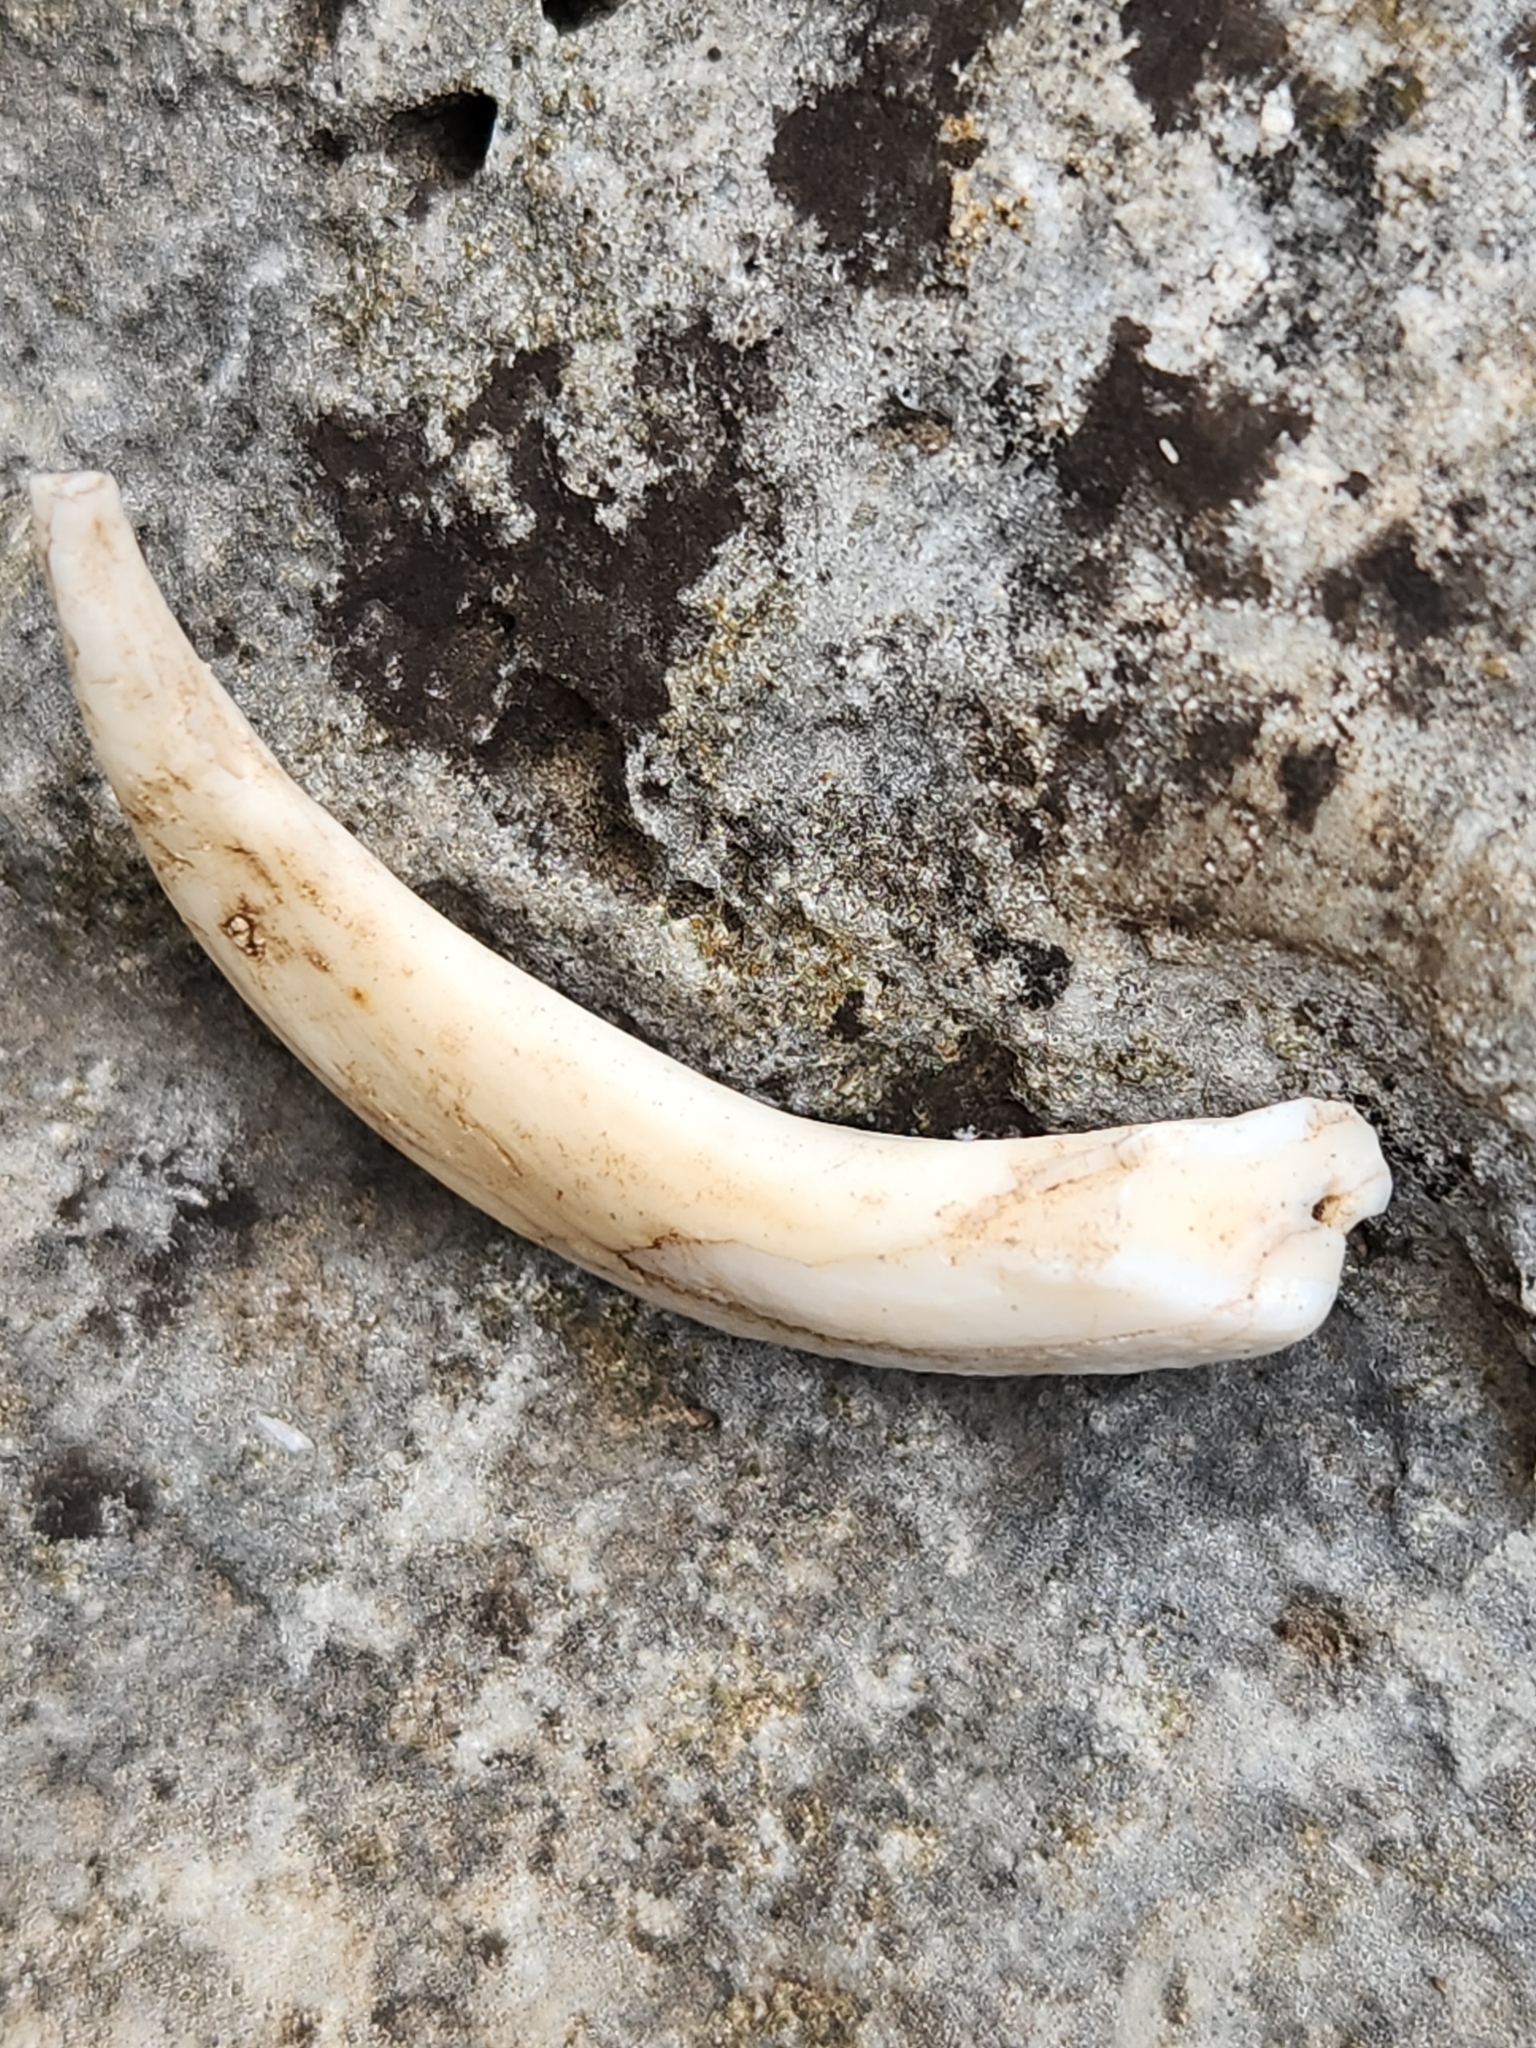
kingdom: Animalia
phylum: Chordata
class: Mammalia
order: Artiodactyla
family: Suidae
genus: Sus
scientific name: Sus scrofa
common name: Wild boar
